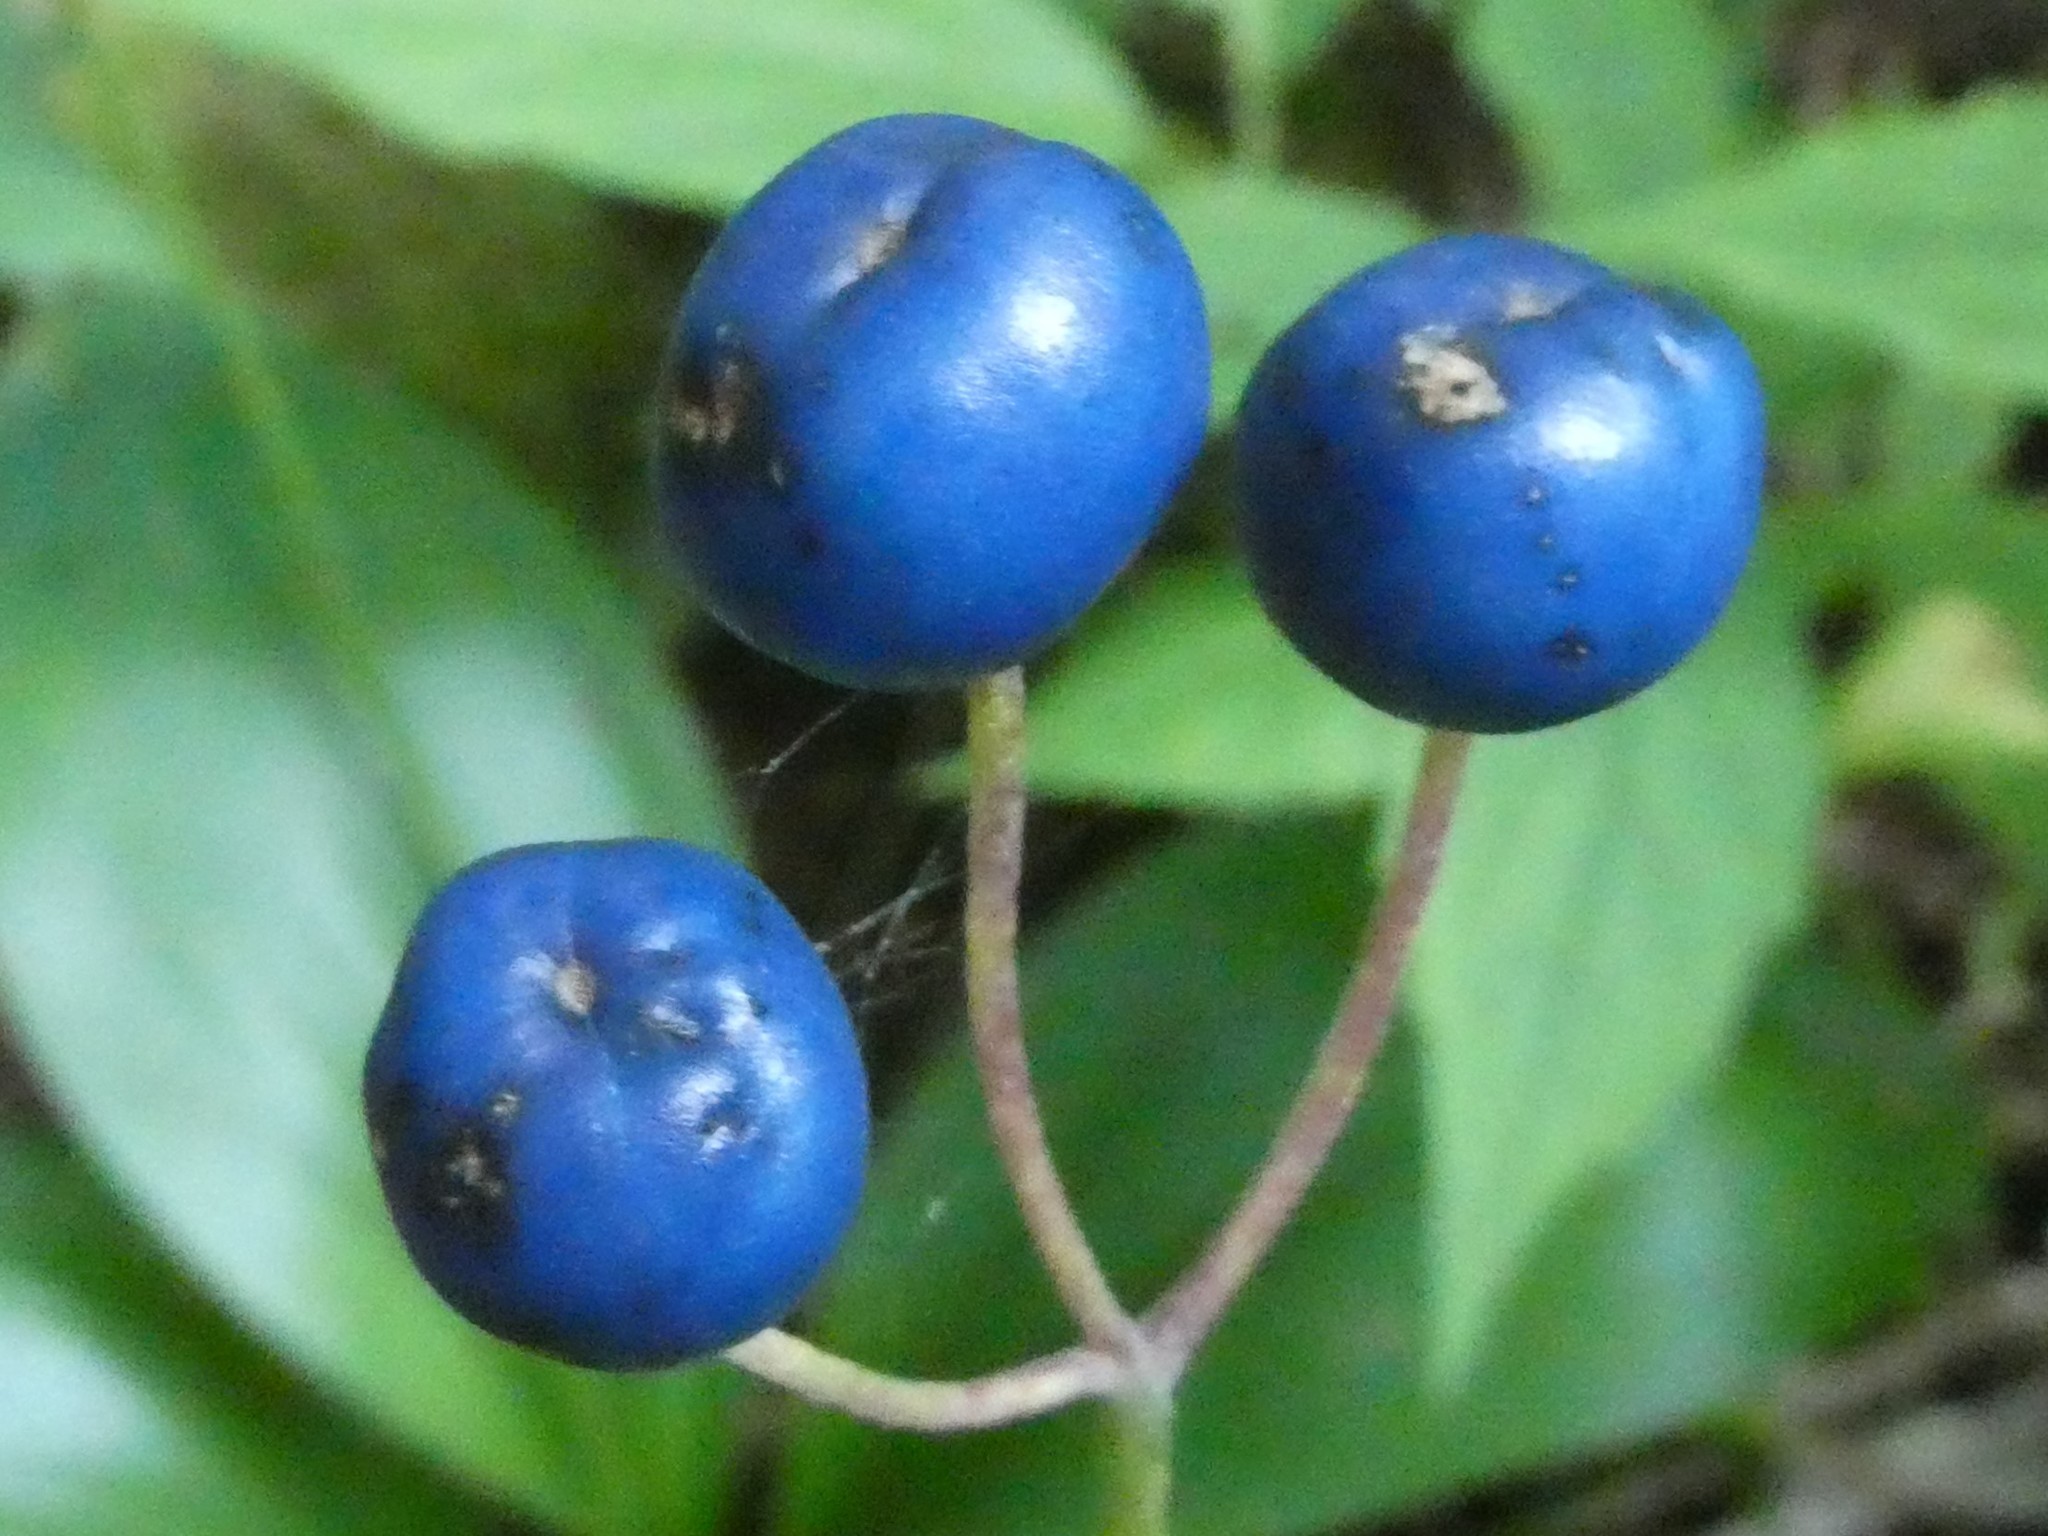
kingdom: Plantae
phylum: Tracheophyta
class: Liliopsida
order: Liliales
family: Liliaceae
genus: Clintonia
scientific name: Clintonia borealis
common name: Yellow clintonia
